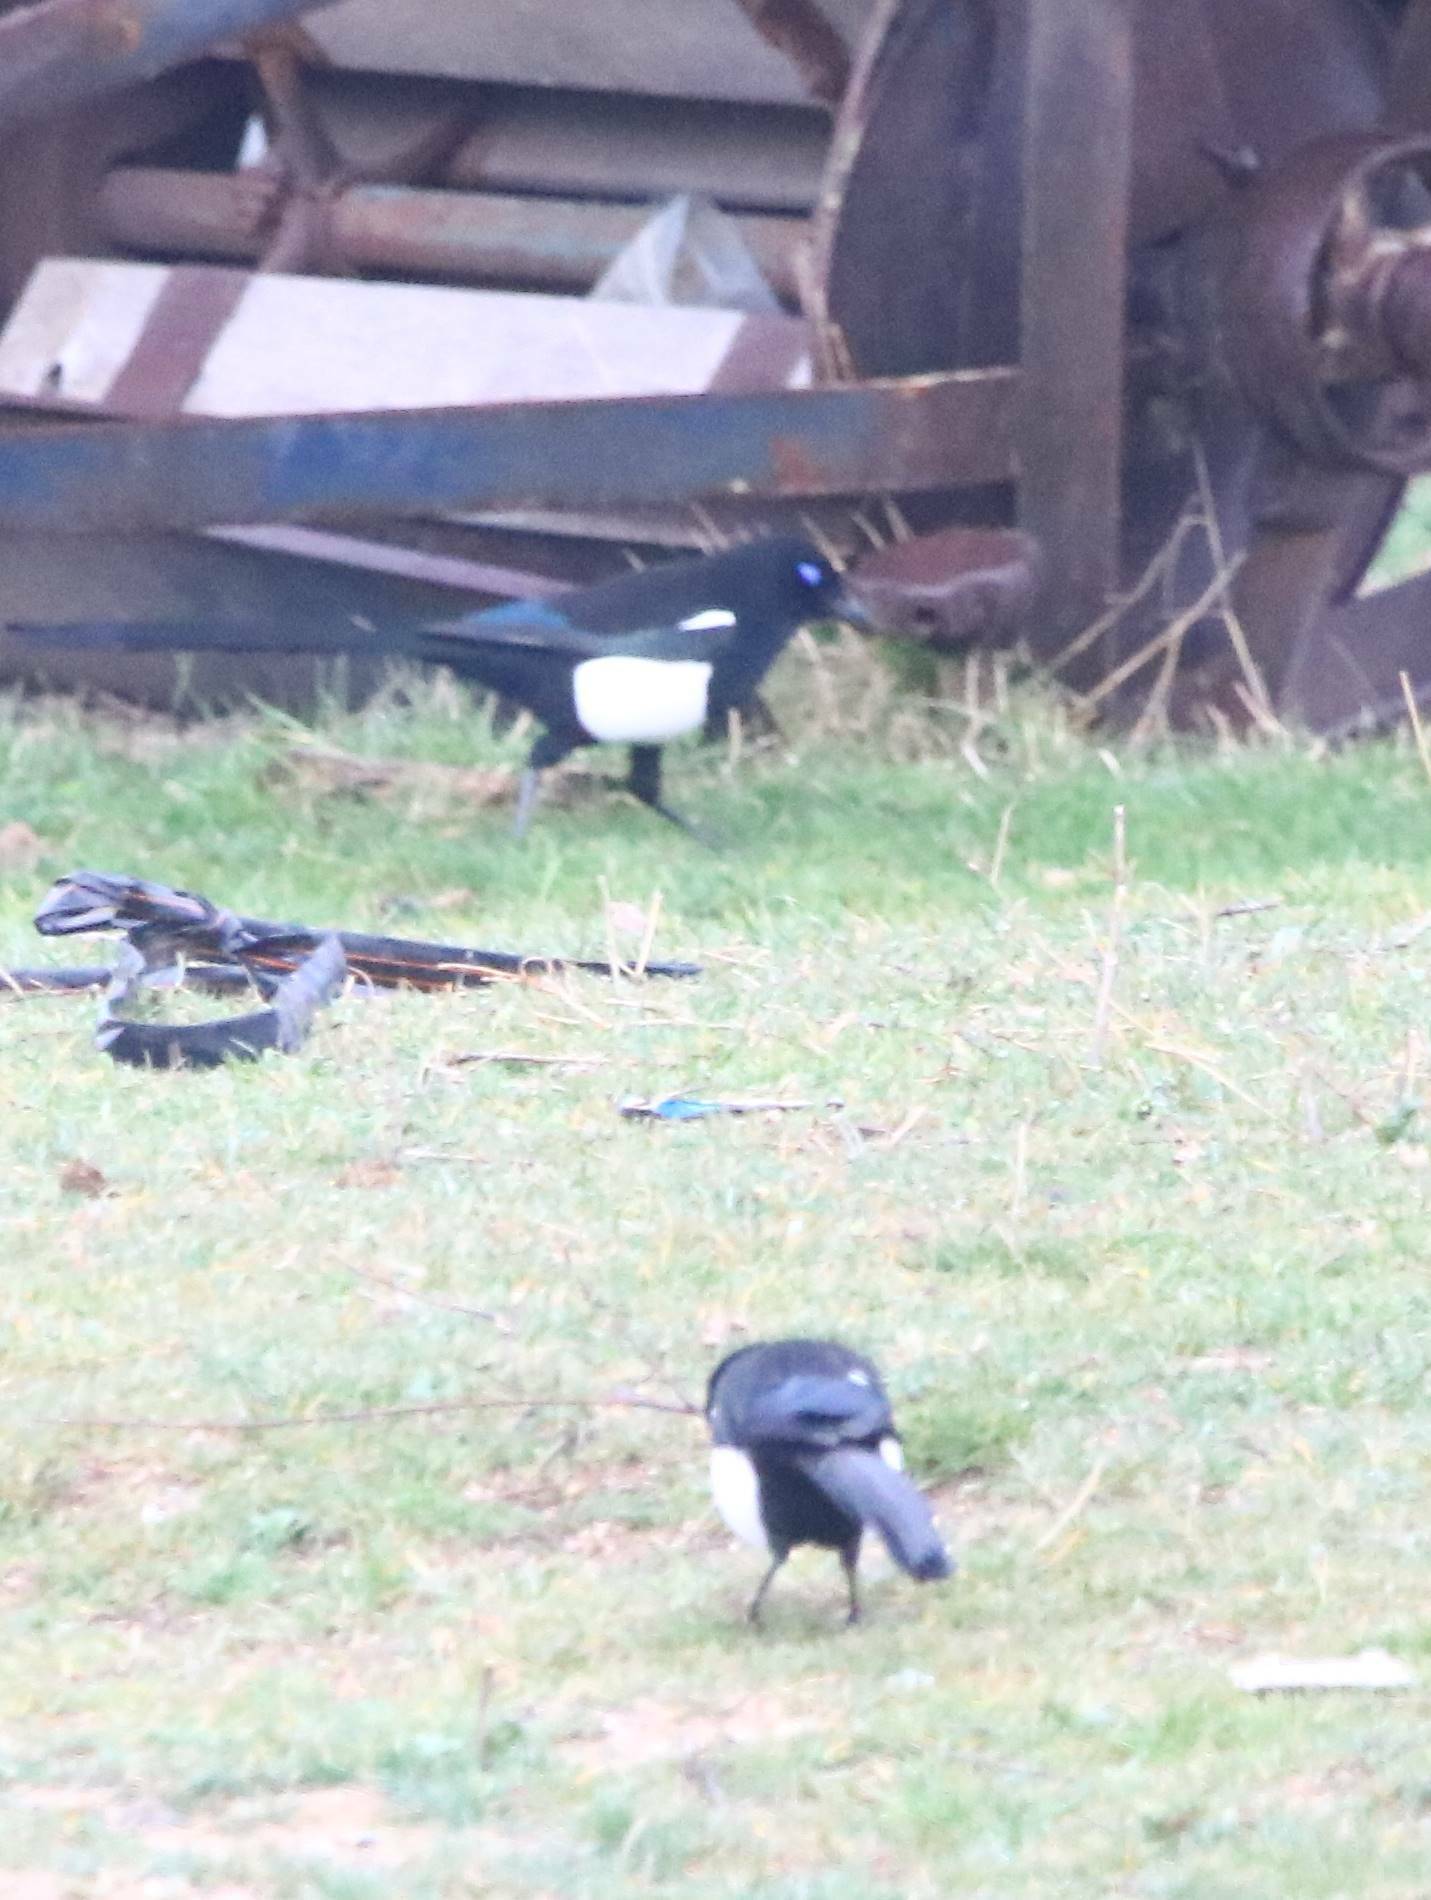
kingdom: Animalia
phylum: Chordata
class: Aves
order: Passeriformes
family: Corvidae
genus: Pica
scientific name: Pica mauritanica
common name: Maghreb magpie
